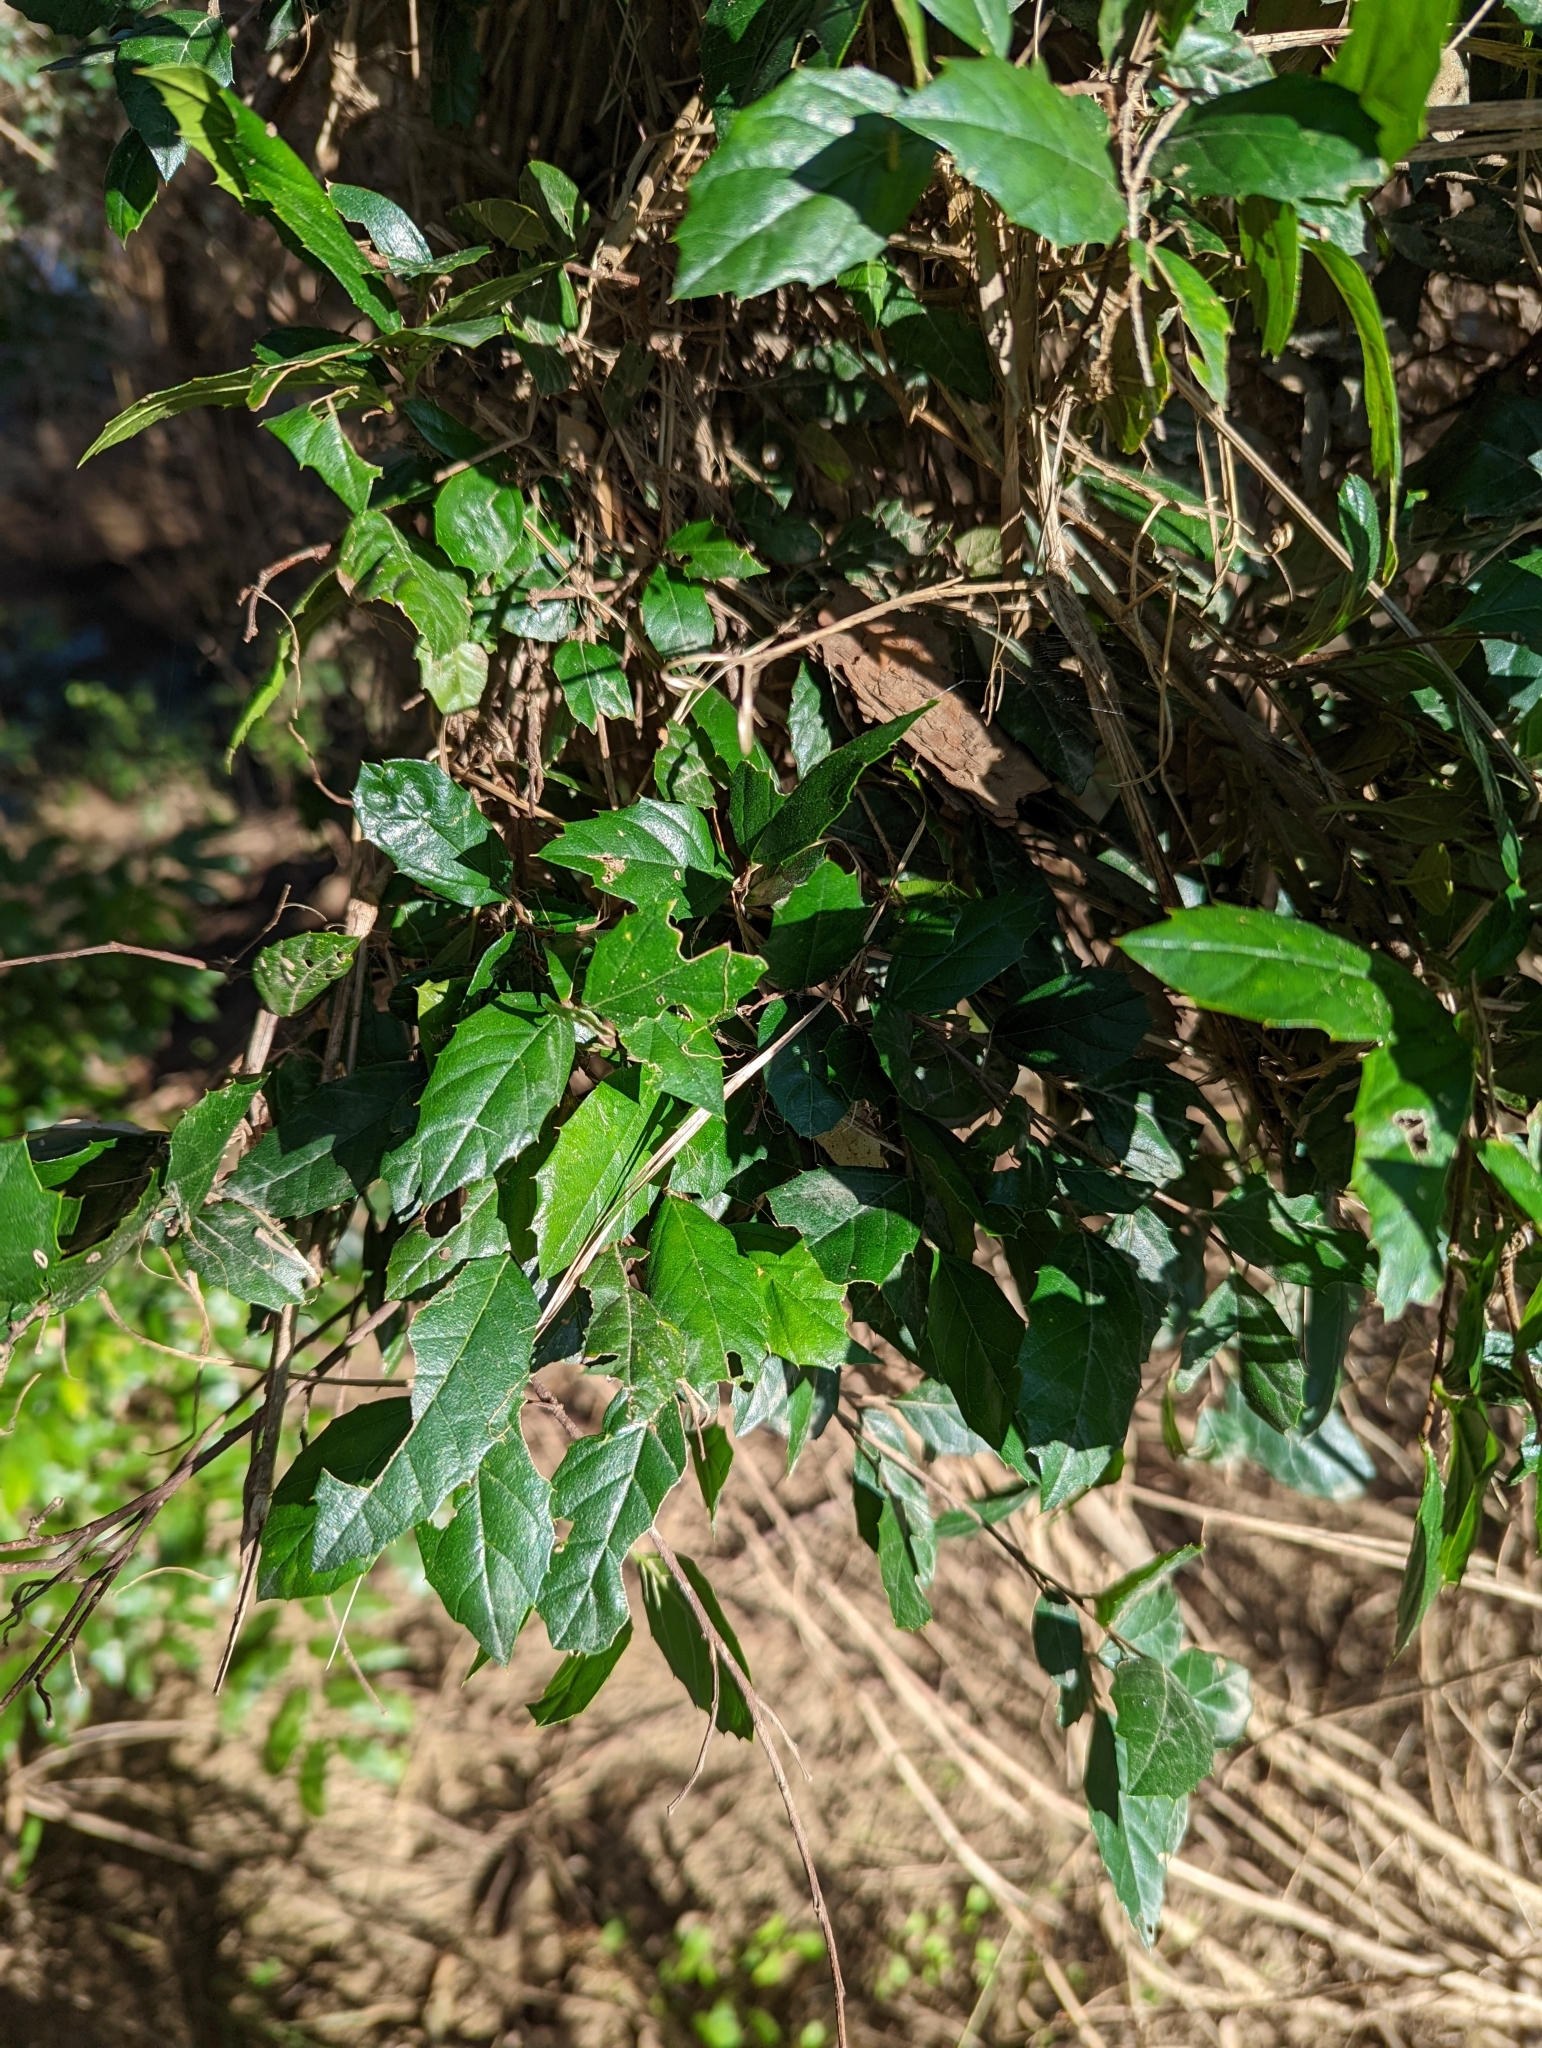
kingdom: Plantae
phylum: Tracheophyta
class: Magnoliopsida
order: Rosales
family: Cannabaceae
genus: Aphananthe
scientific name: Aphananthe philippinensis
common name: Wild holly
